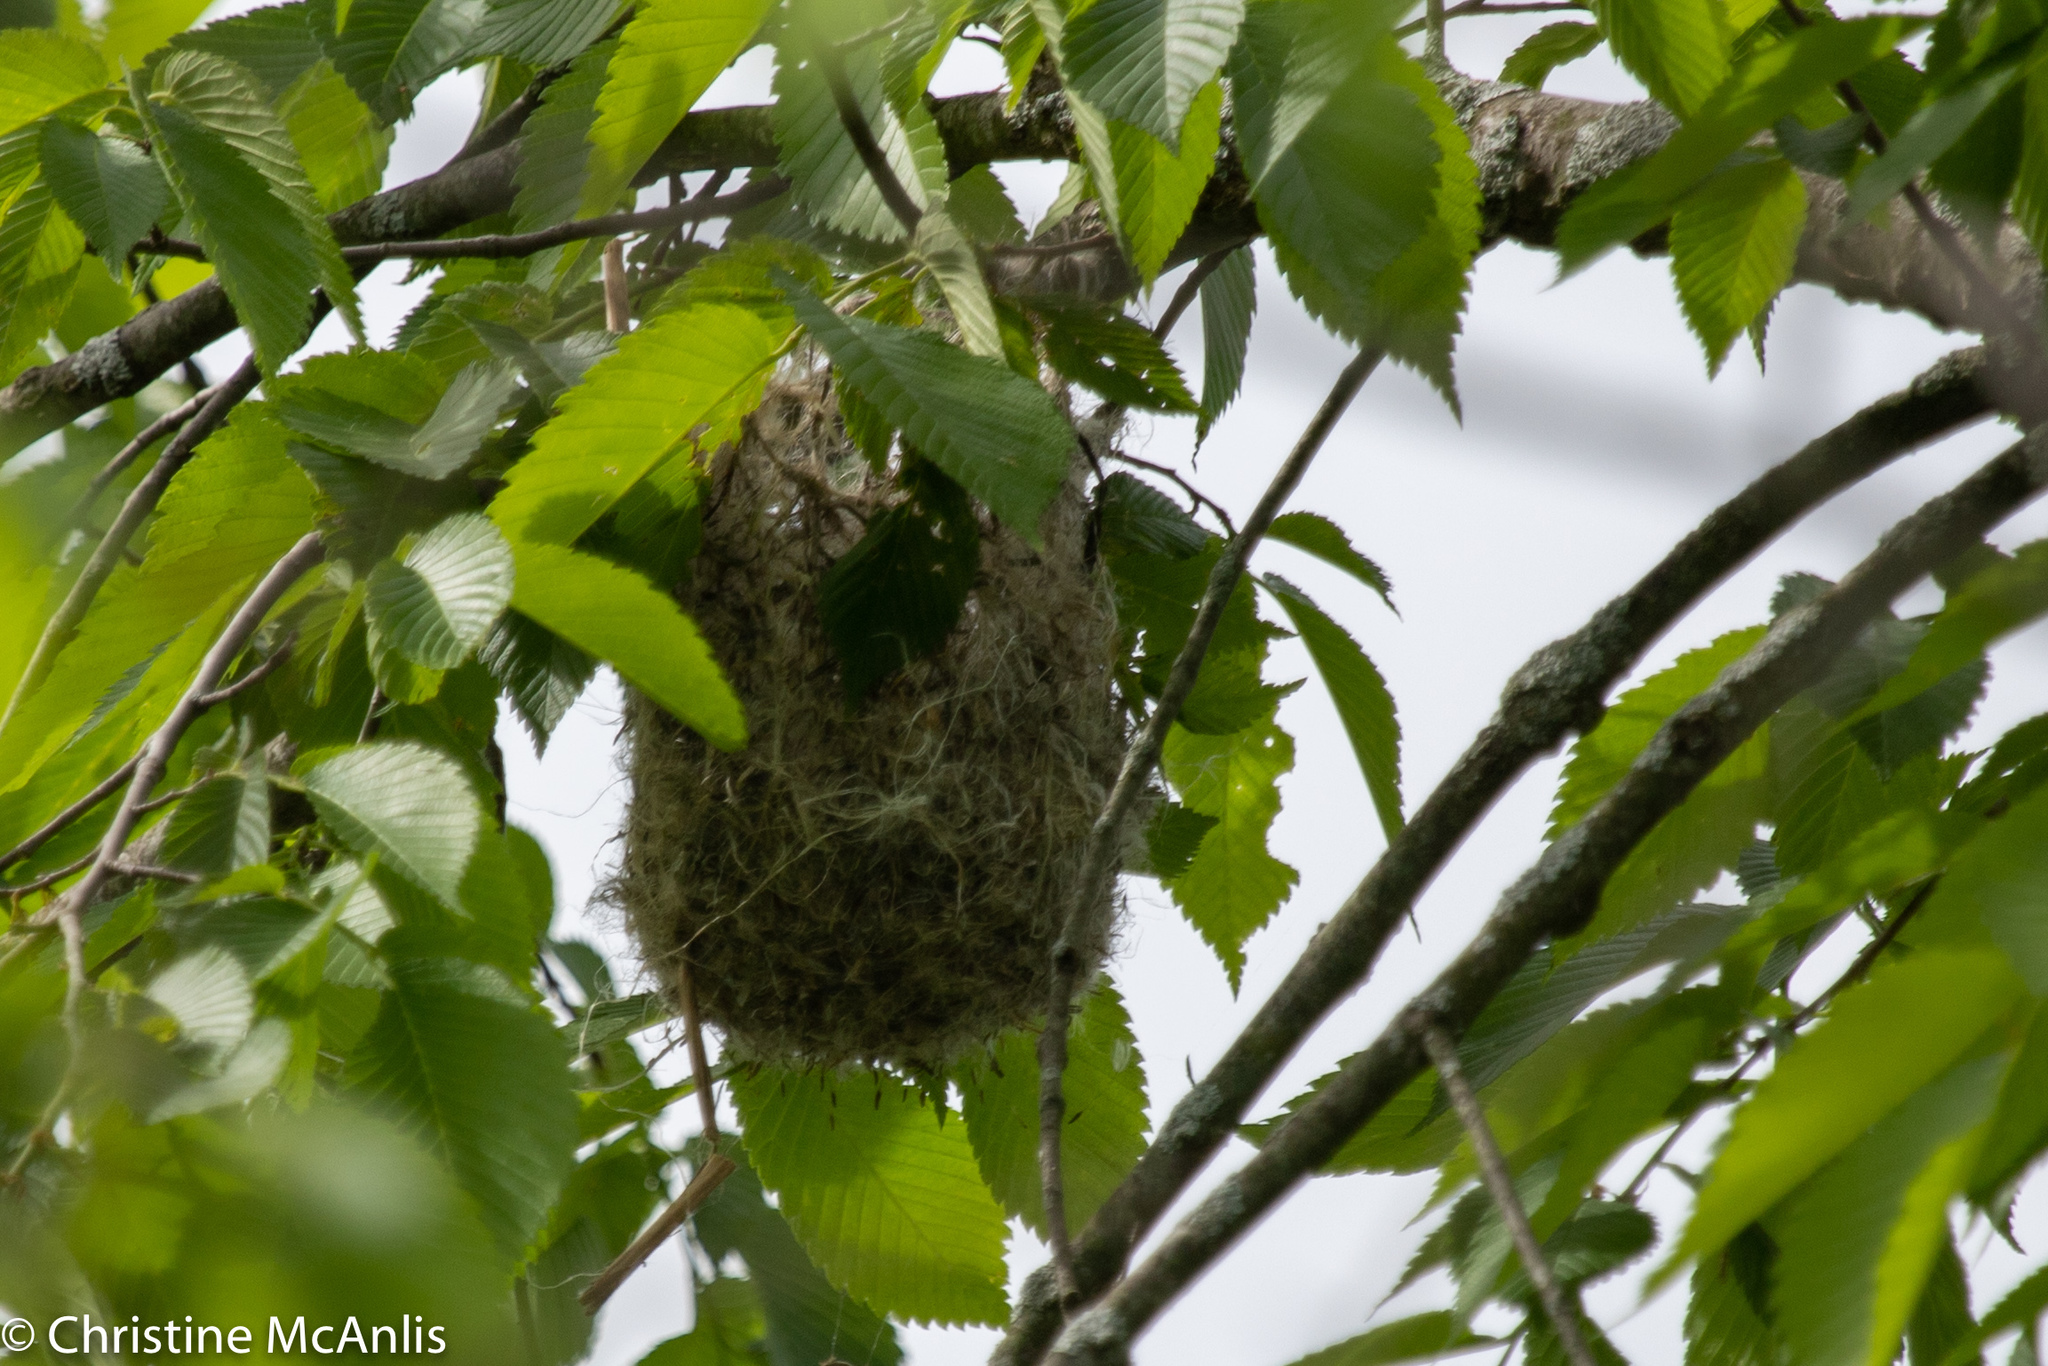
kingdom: Animalia
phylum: Chordata
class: Aves
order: Passeriformes
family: Icteridae
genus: Icterus
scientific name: Icterus galbula
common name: Baltimore oriole
